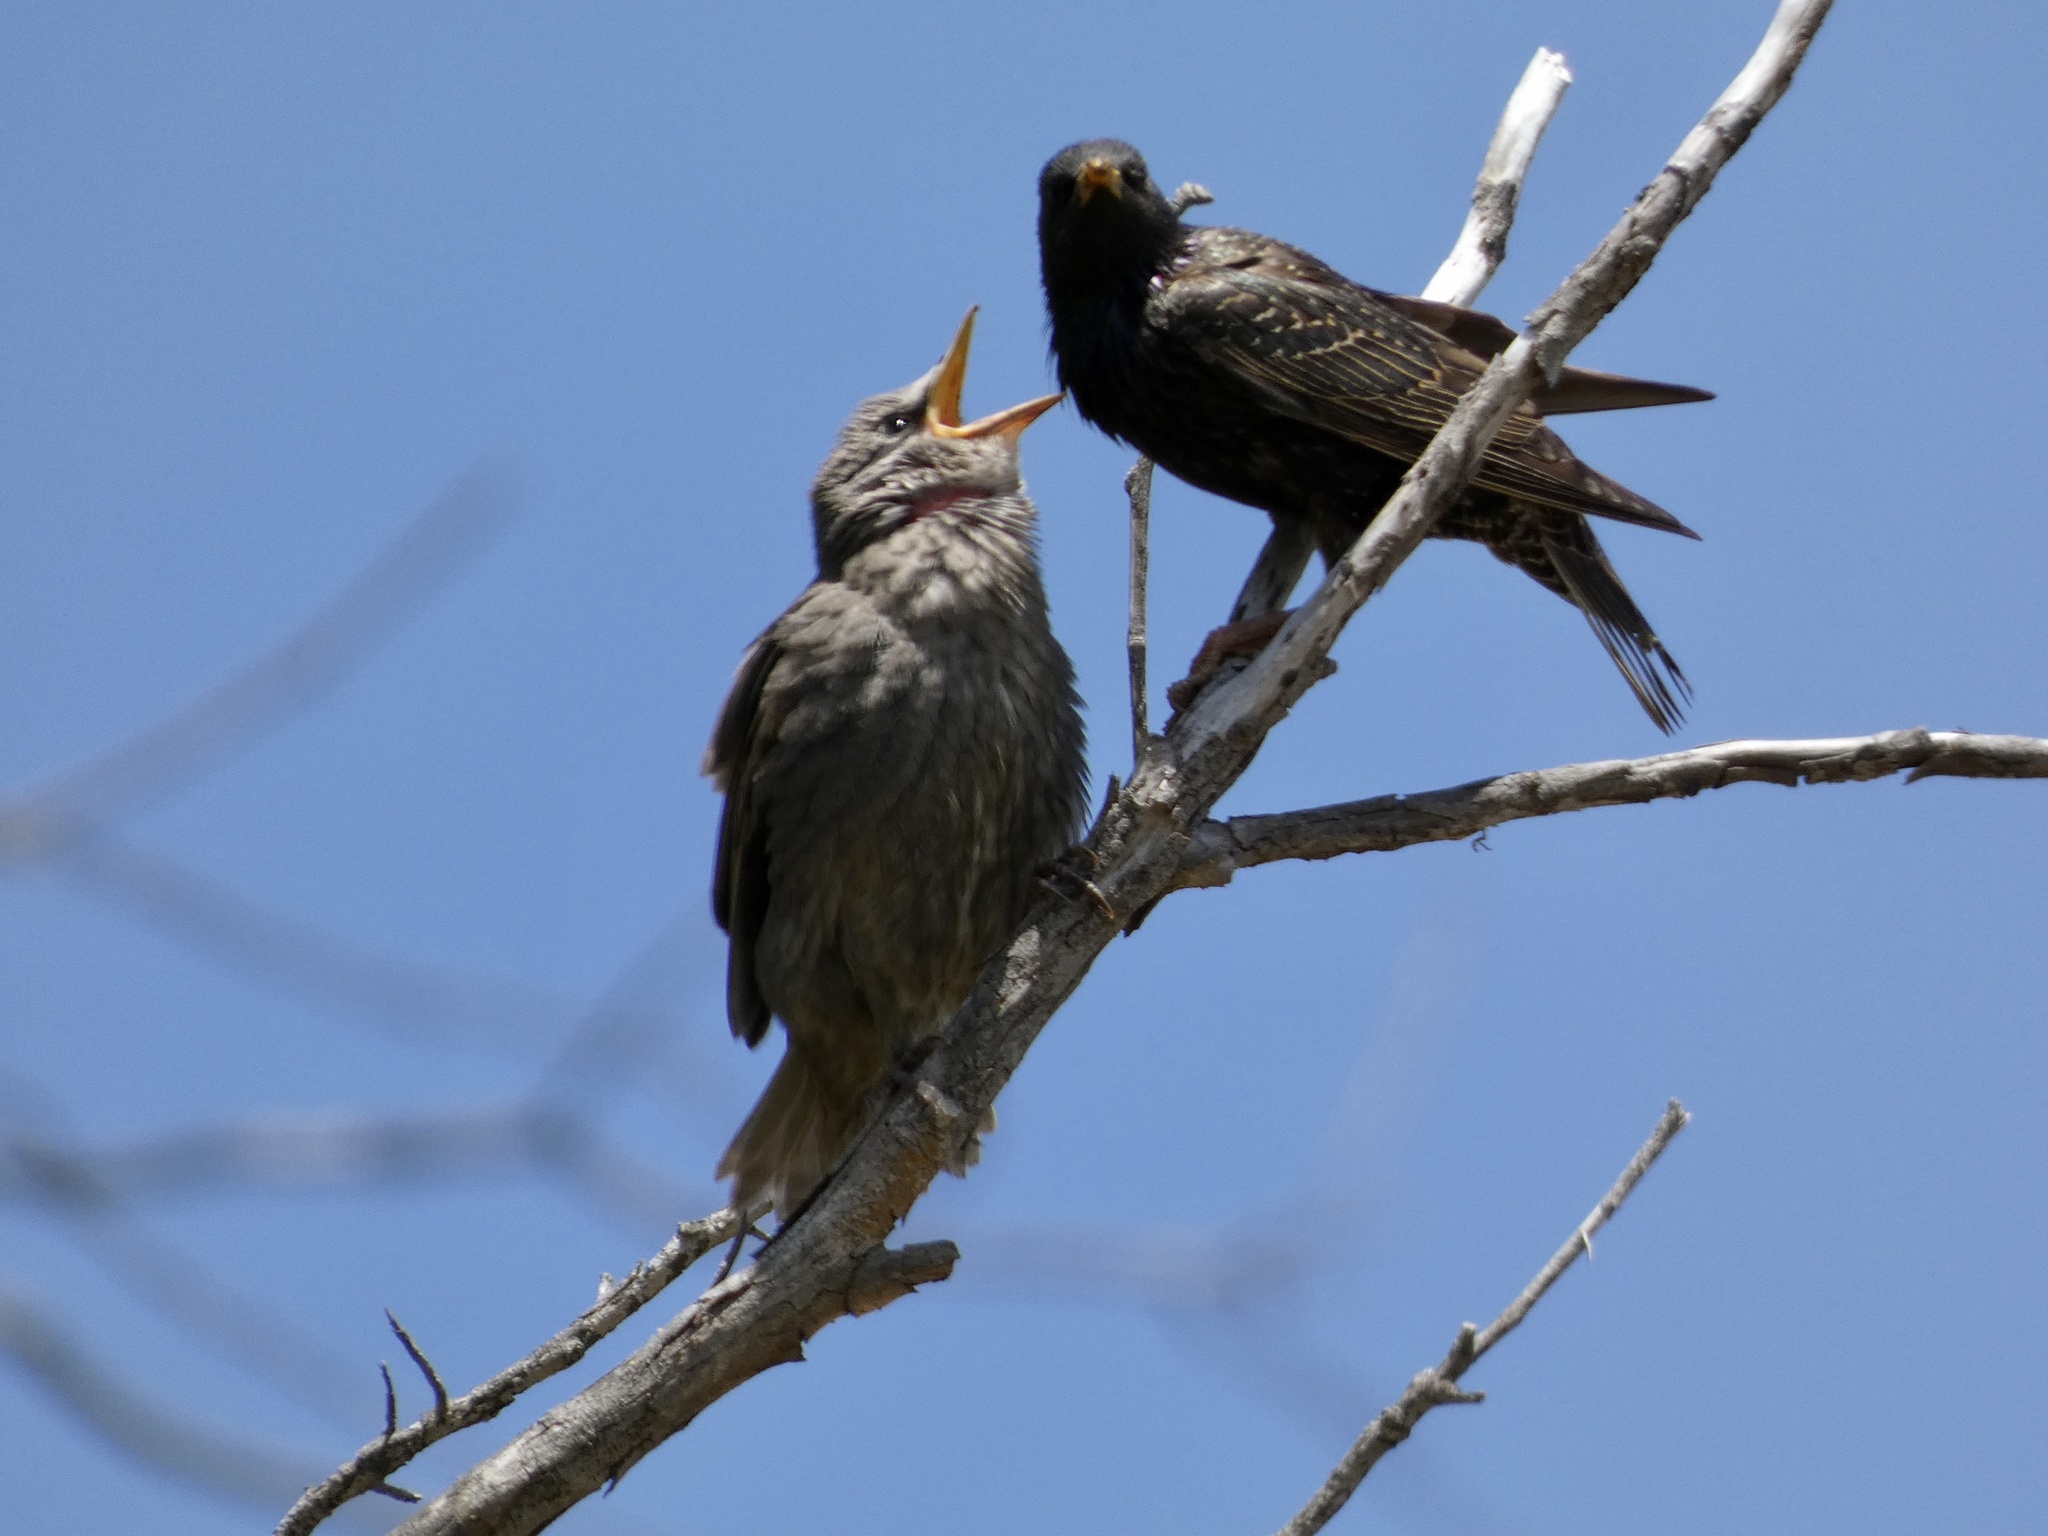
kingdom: Animalia
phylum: Chordata
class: Aves
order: Passeriformes
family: Sturnidae
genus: Sturnus
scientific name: Sturnus vulgaris
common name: Common starling
